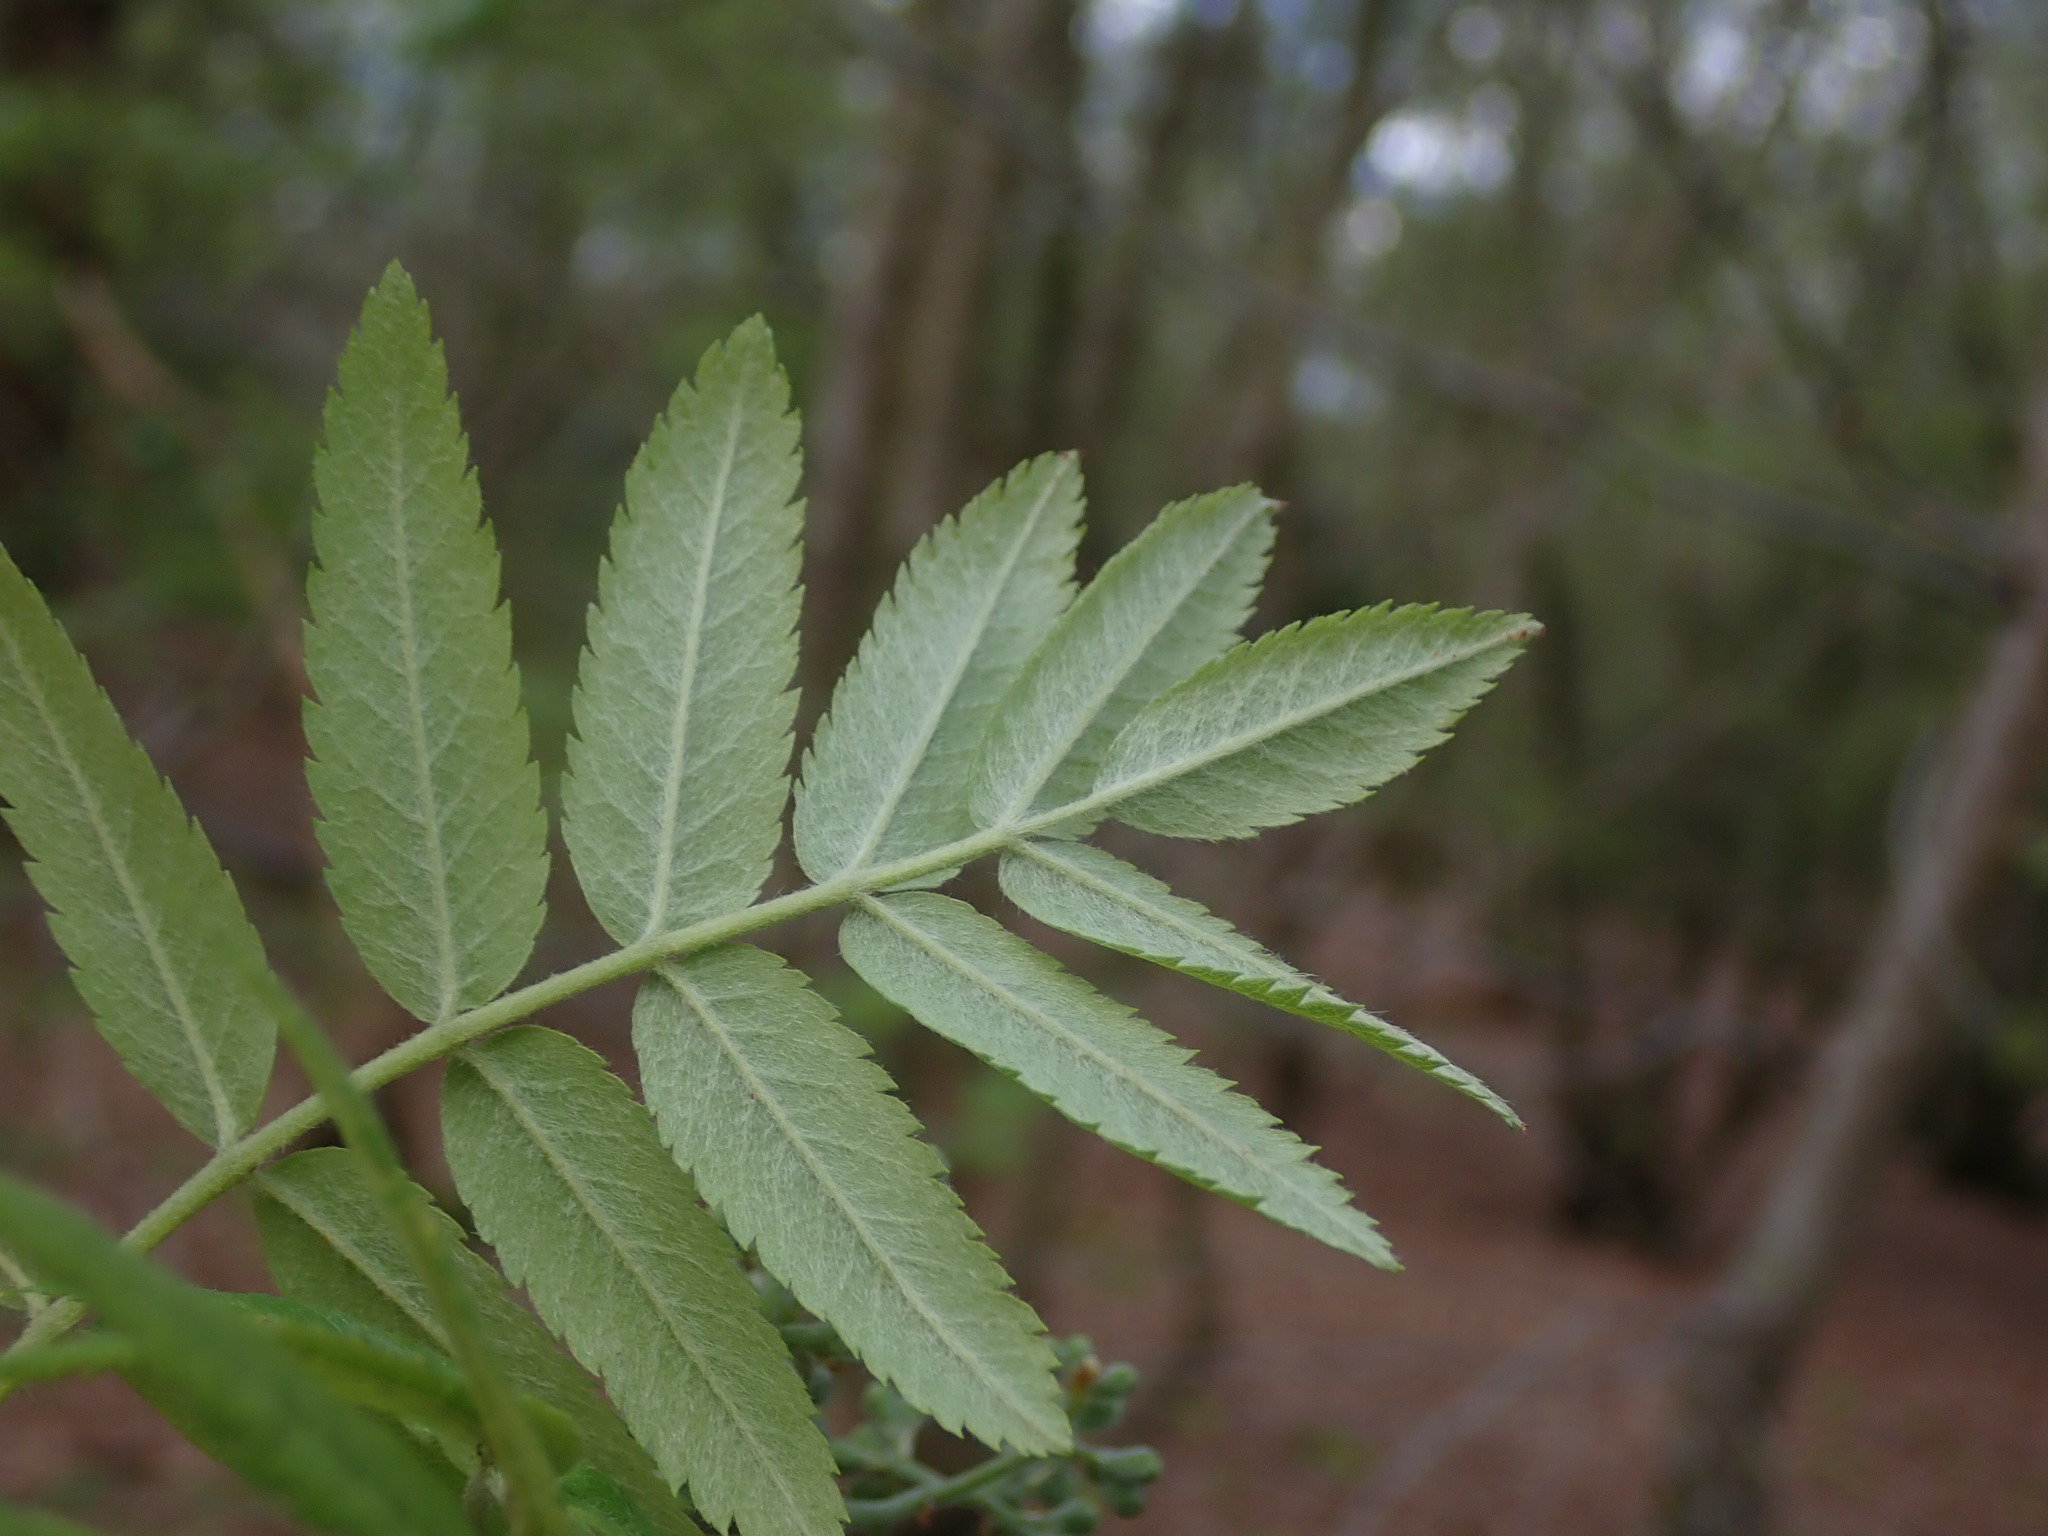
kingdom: Plantae
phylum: Tracheophyta
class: Magnoliopsida
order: Rosales
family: Rosaceae
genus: Sorbus
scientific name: Sorbus aucuparia
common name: Rowan
